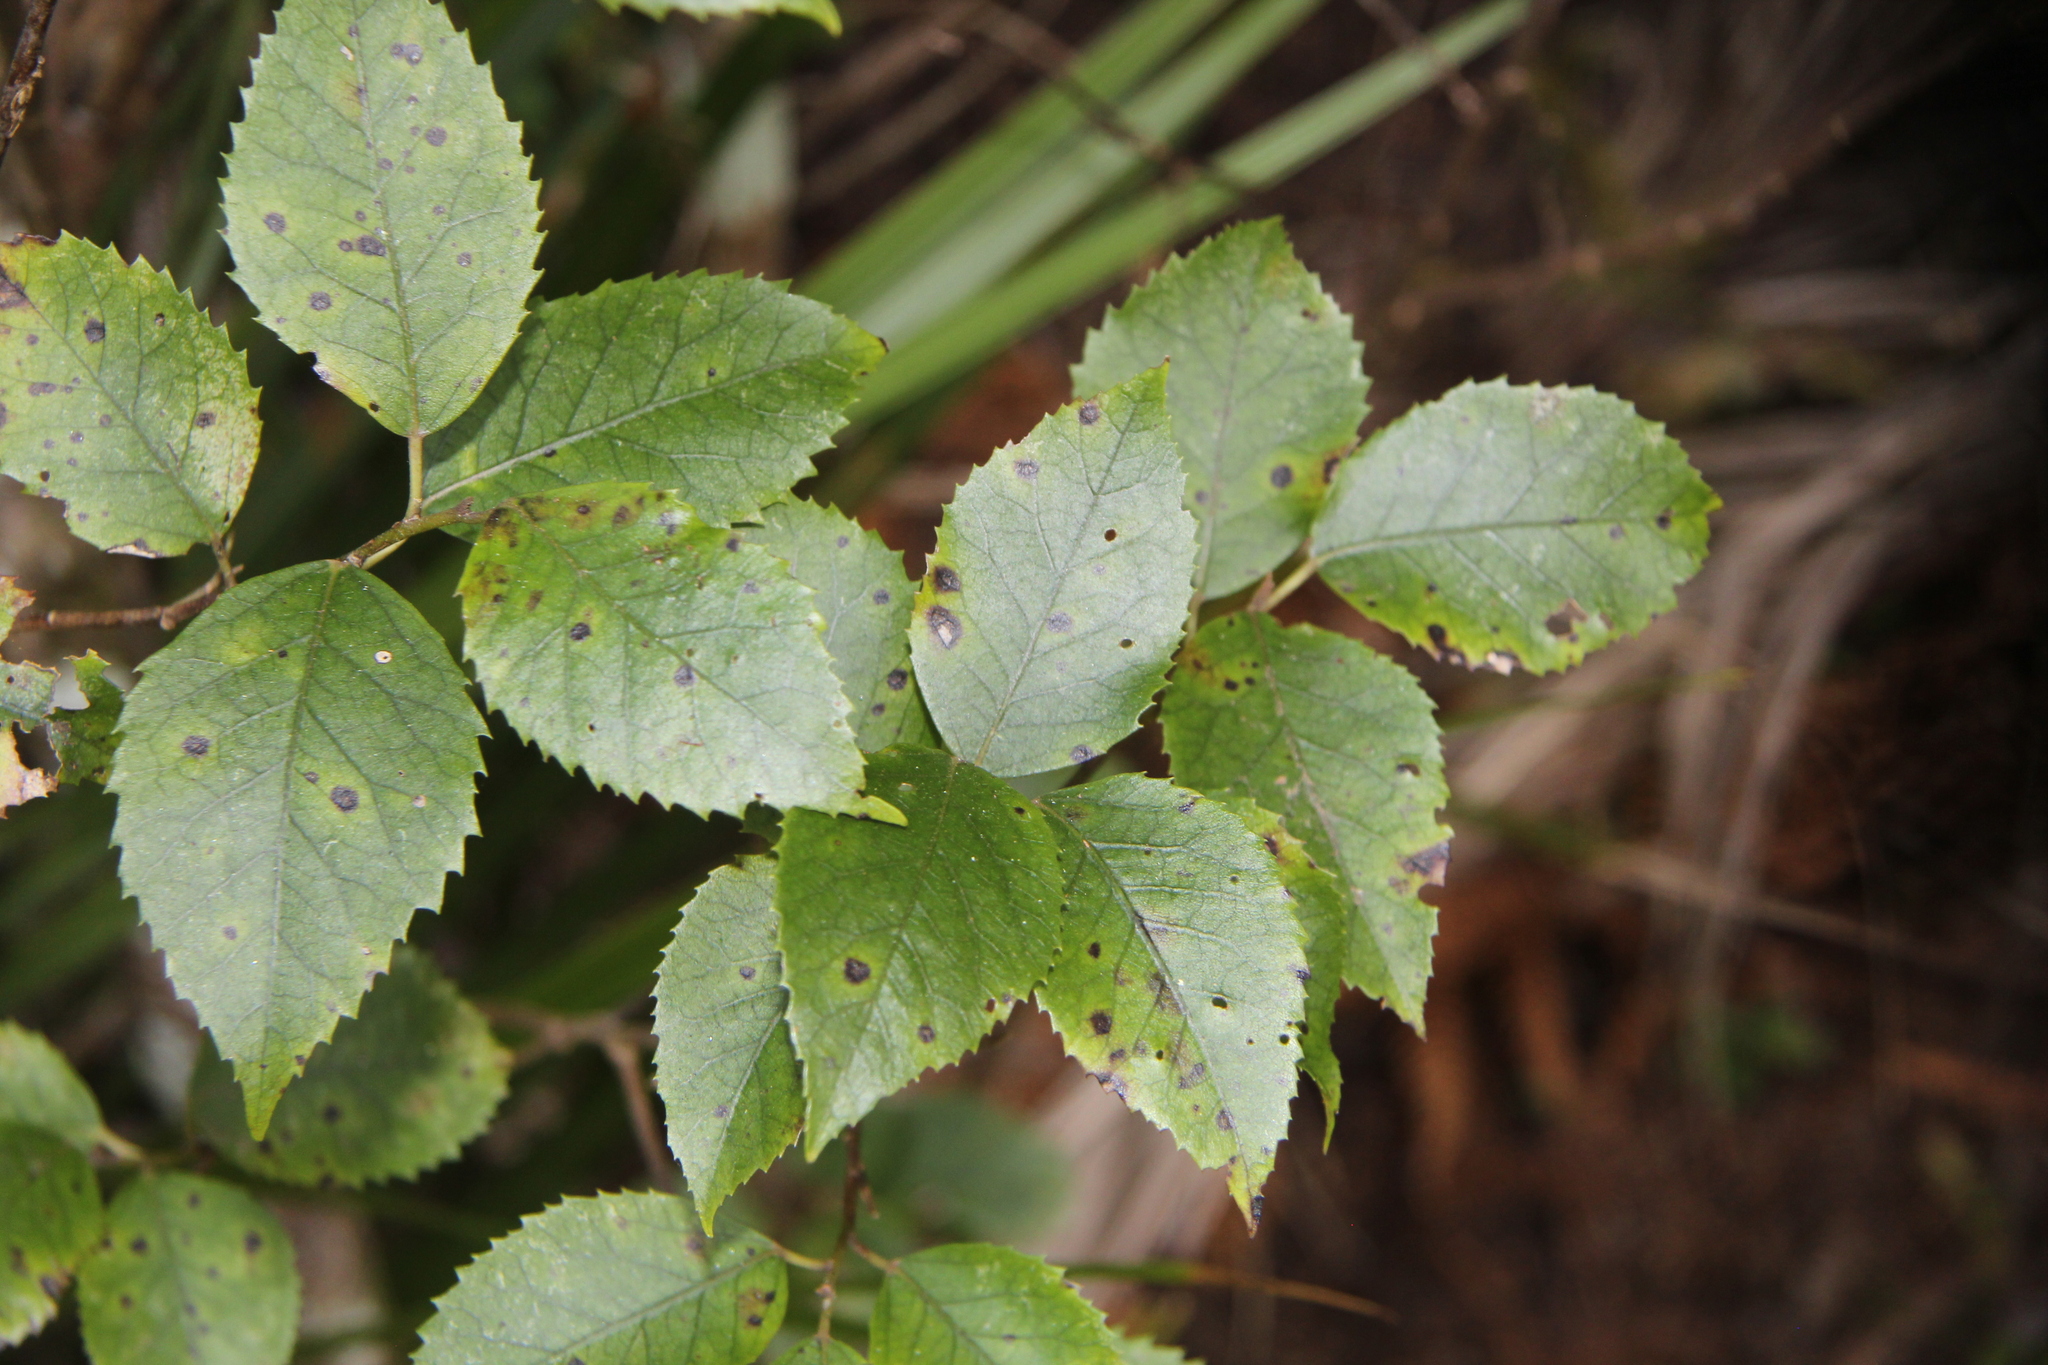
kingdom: Plantae
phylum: Tracheophyta
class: Magnoliopsida
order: Malvales
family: Malvaceae
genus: Hoheria
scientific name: Hoheria populnea
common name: Lacebark
